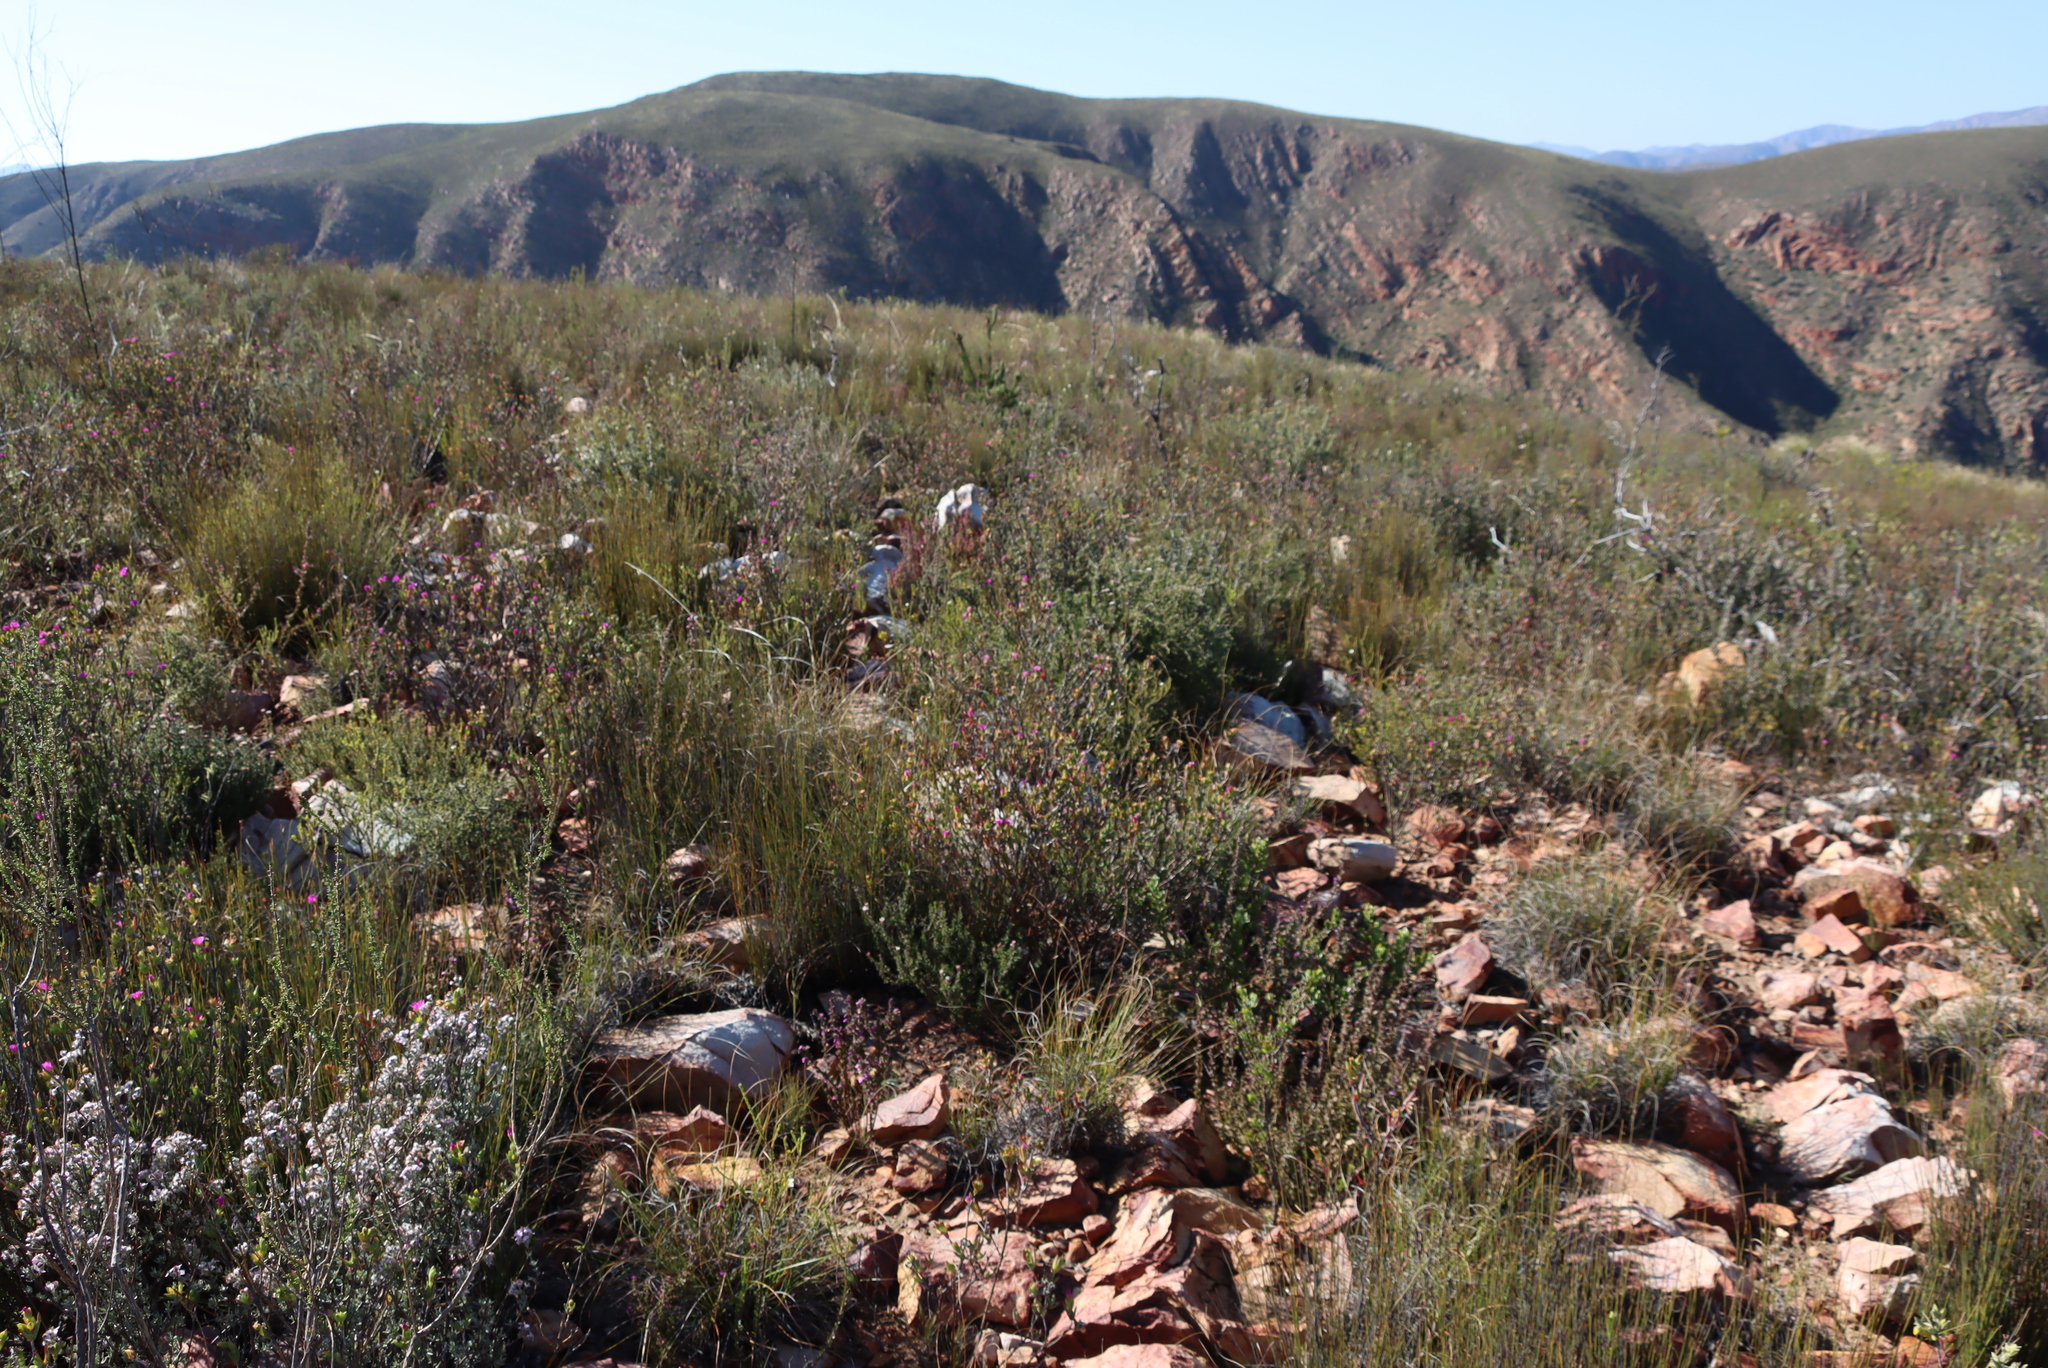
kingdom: Plantae
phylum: Tracheophyta
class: Magnoliopsida
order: Malvales
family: Thymelaeaceae
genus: Struthiola
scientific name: Struthiola argentea
